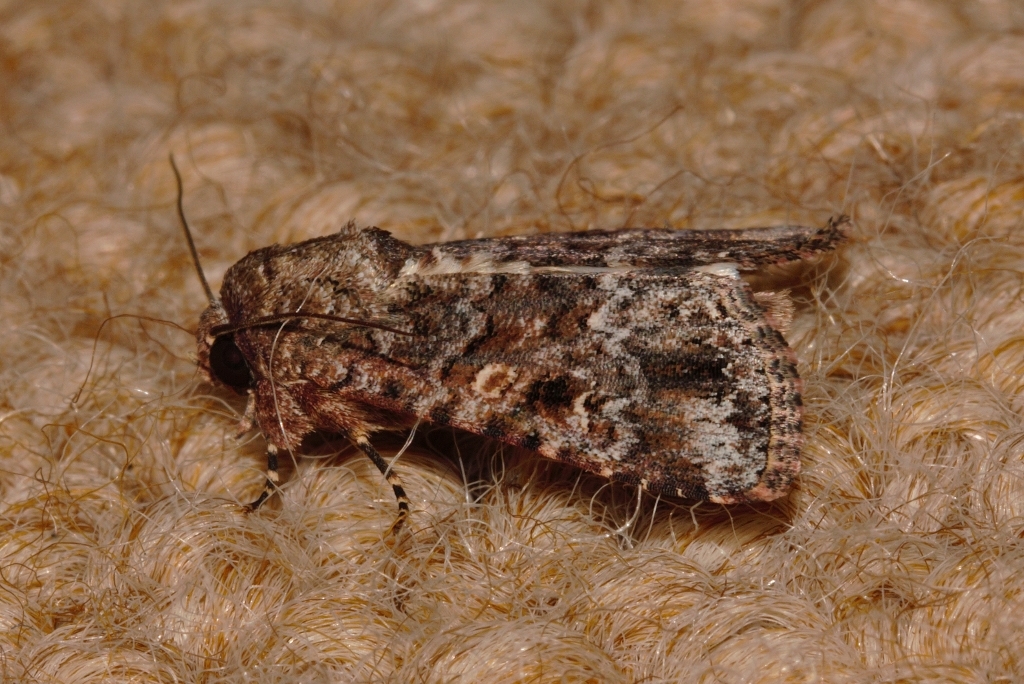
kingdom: Animalia
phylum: Arthropoda
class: Insecta
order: Lepidoptera
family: Noctuidae
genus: Spodoptera
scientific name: Spodoptera mauritia
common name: Lawn armyworm
